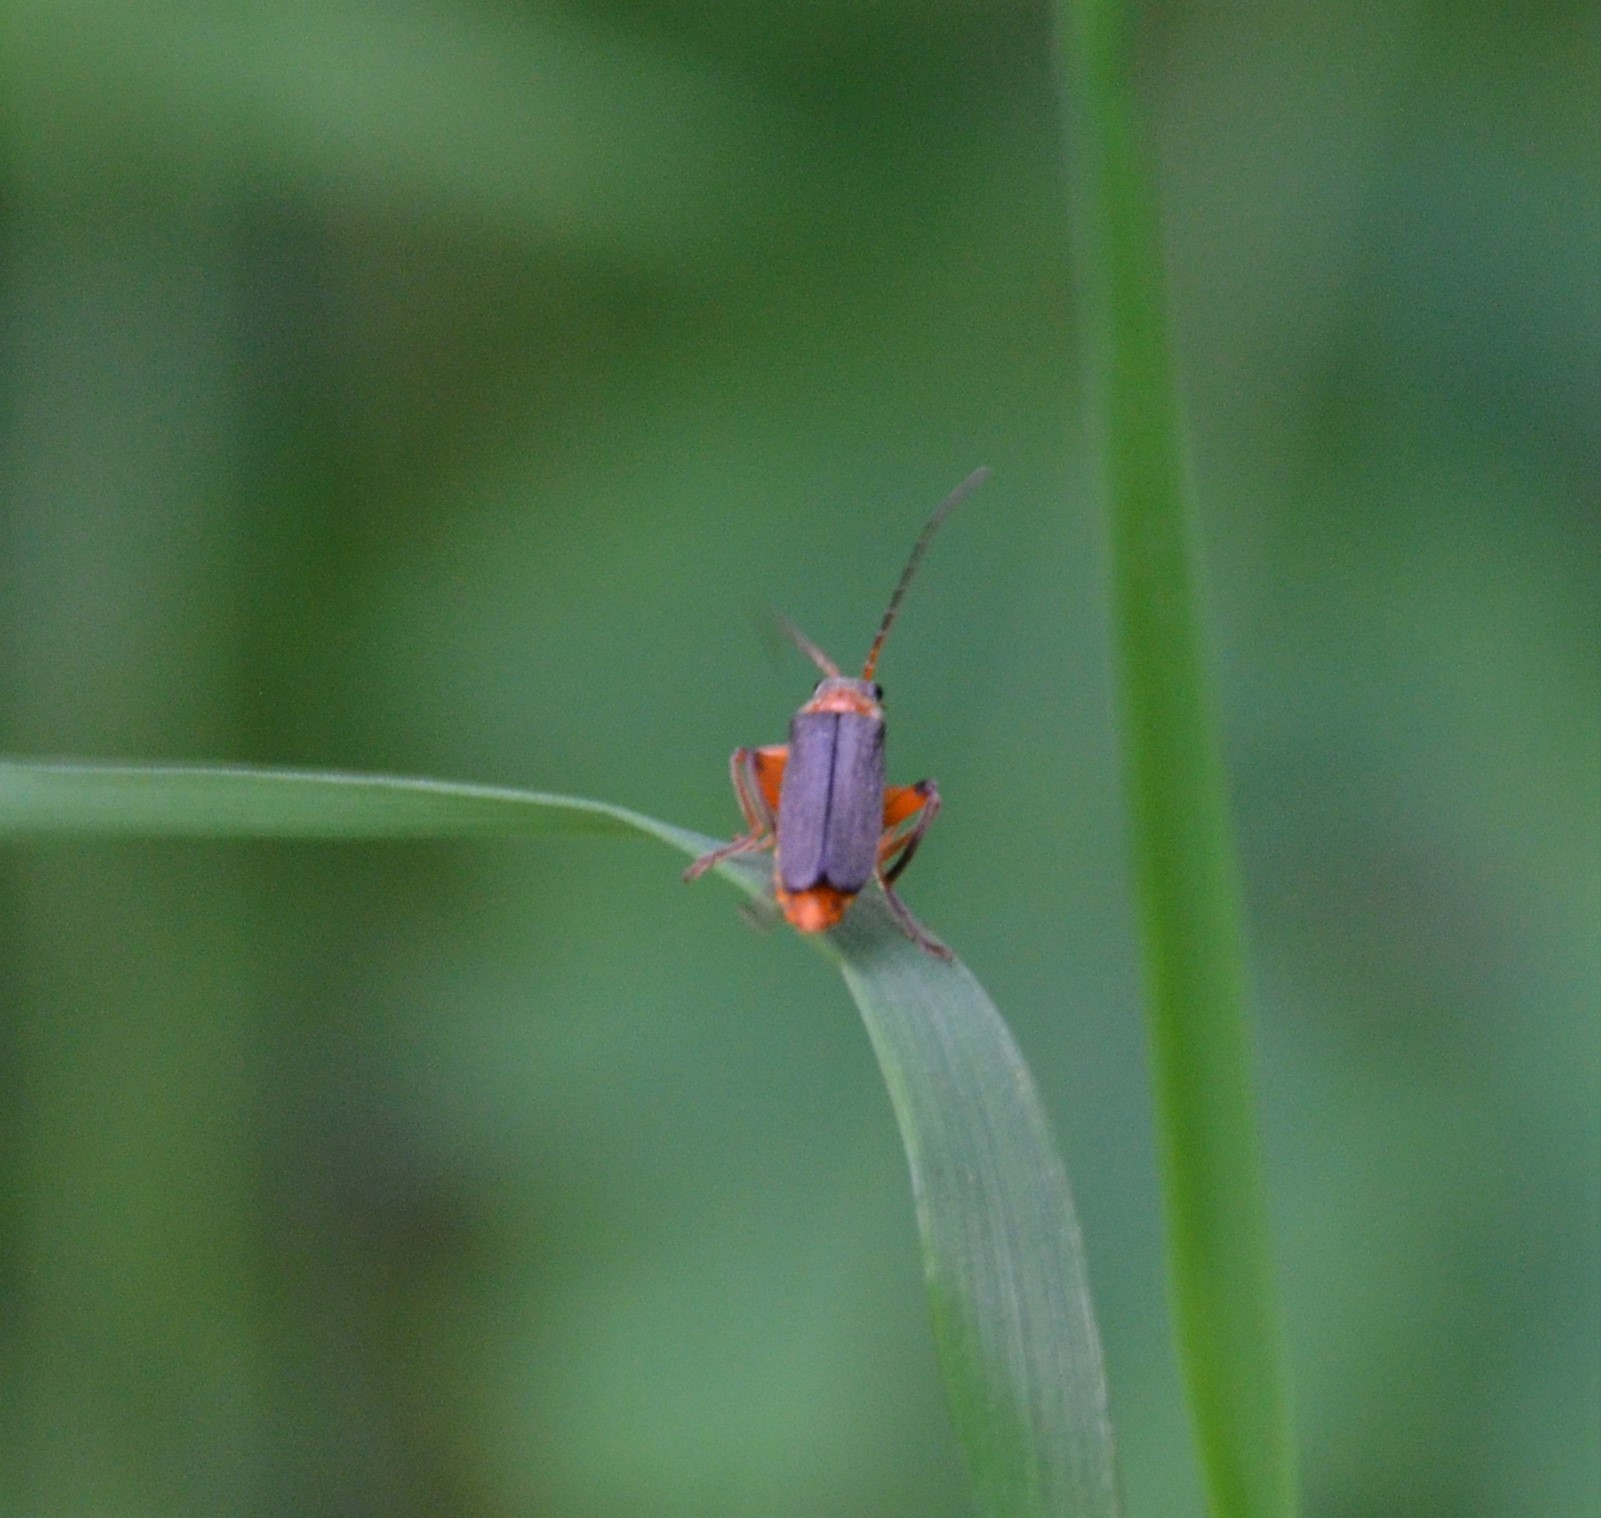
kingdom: Animalia
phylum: Arthropoda
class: Insecta
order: Coleoptera
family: Cantharidae
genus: Cantharis
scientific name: Cantharis nigricans
